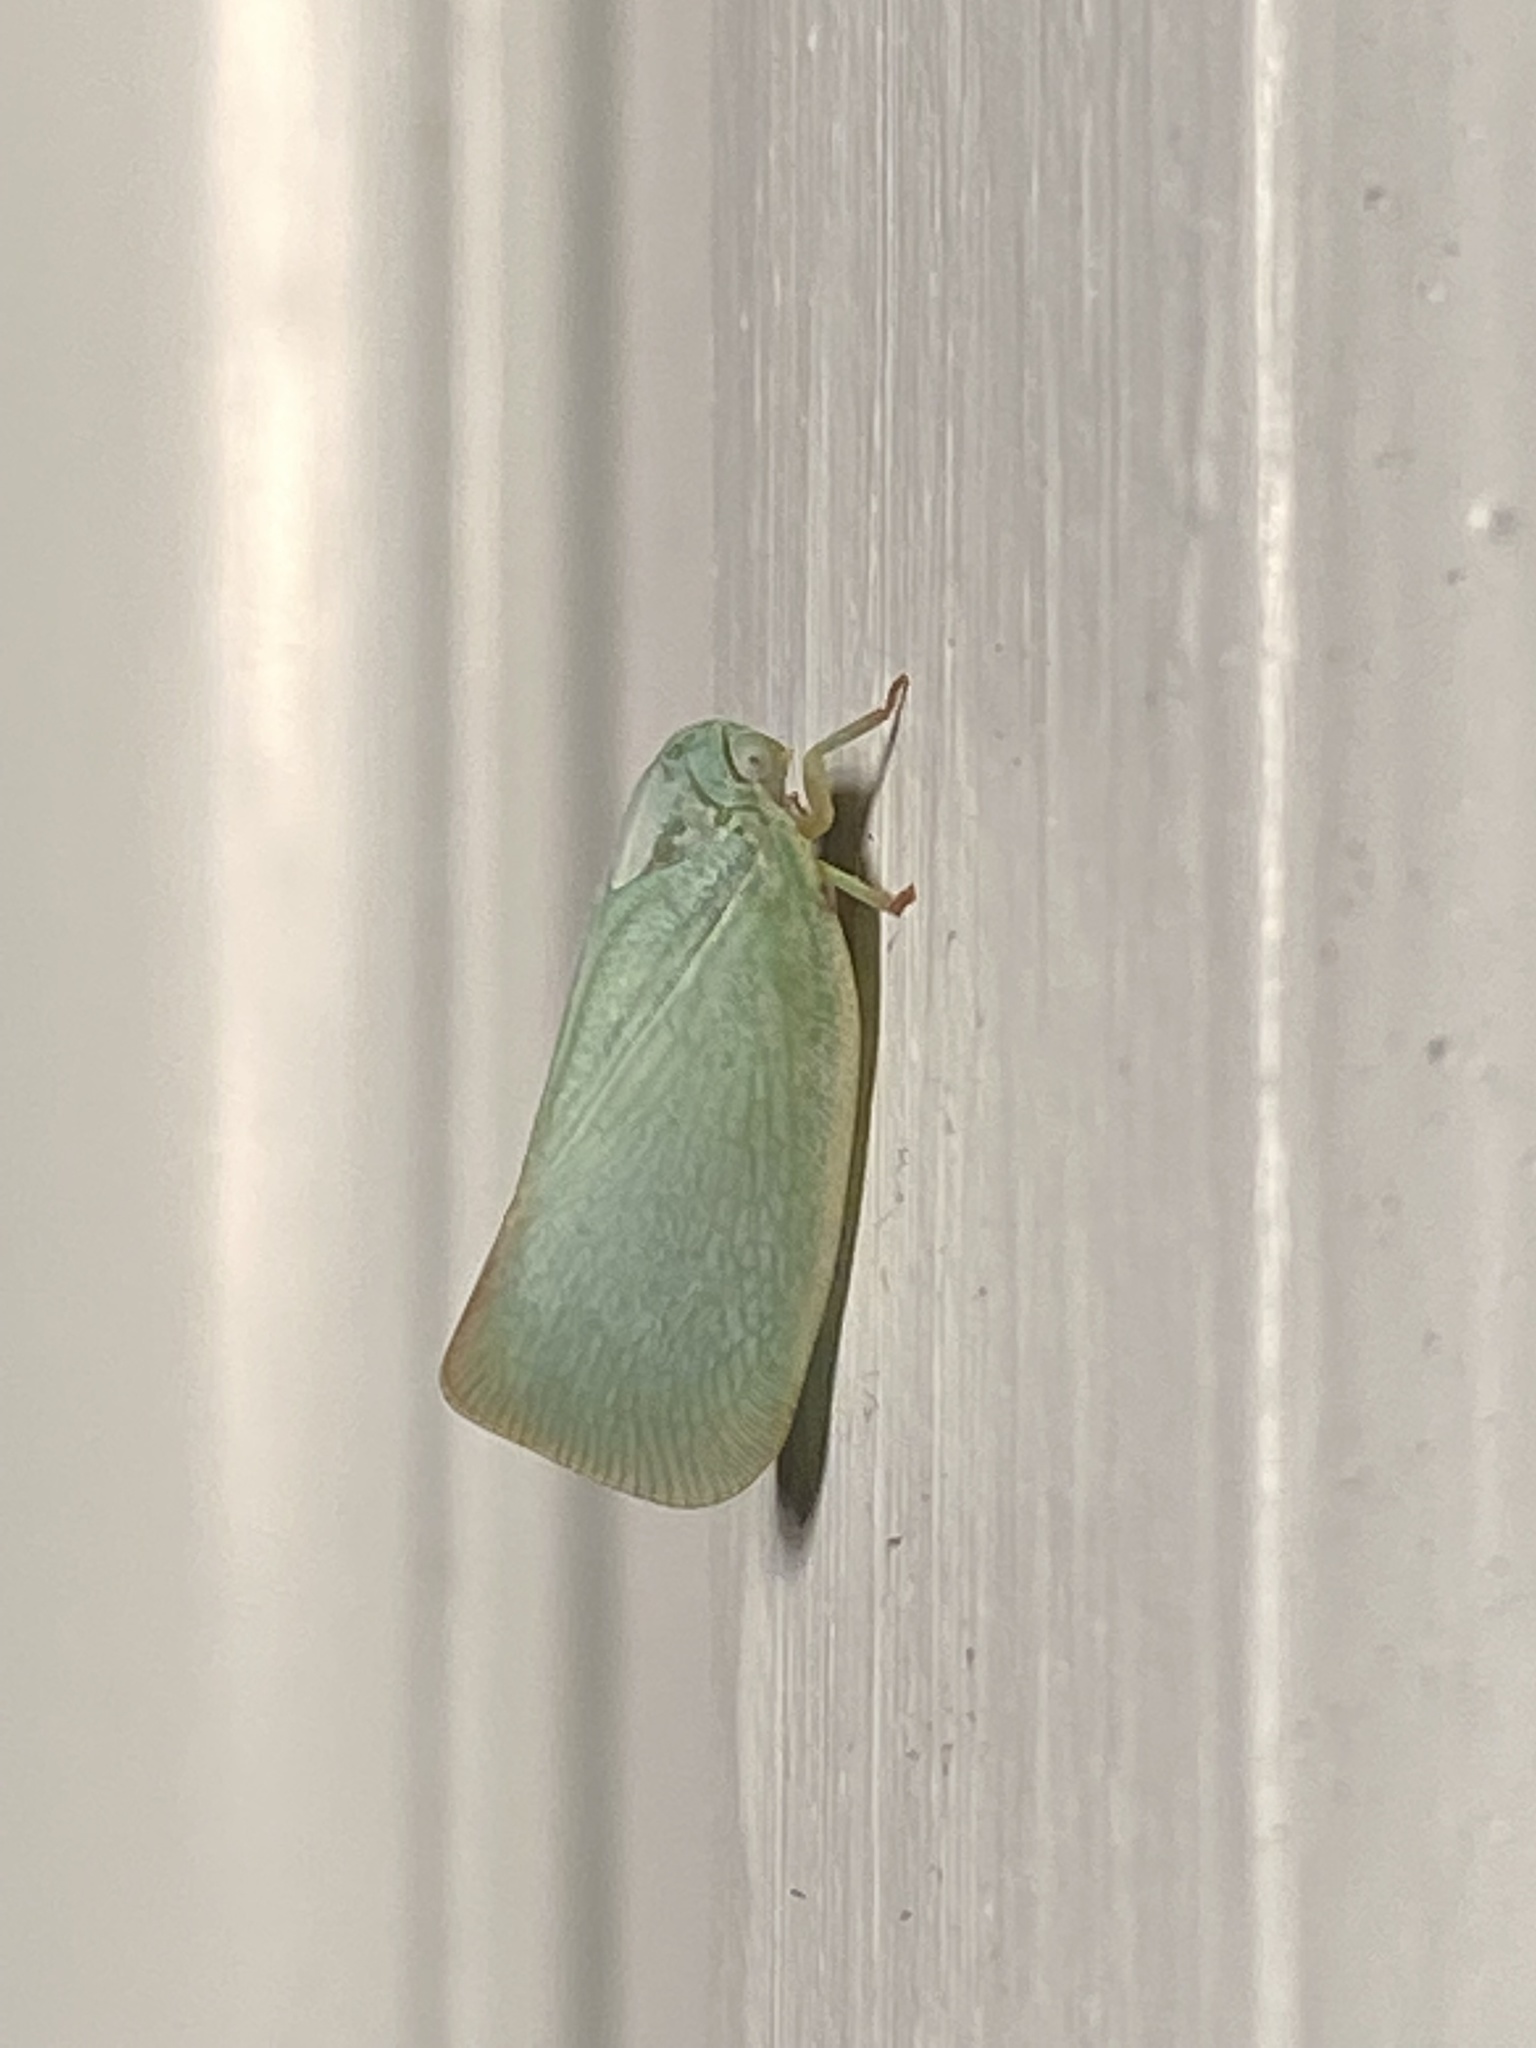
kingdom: Animalia
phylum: Arthropoda
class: Insecta
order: Hemiptera
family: Flatidae
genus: Flatormenis
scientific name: Flatormenis proxima
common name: Northern flatid planthopper
